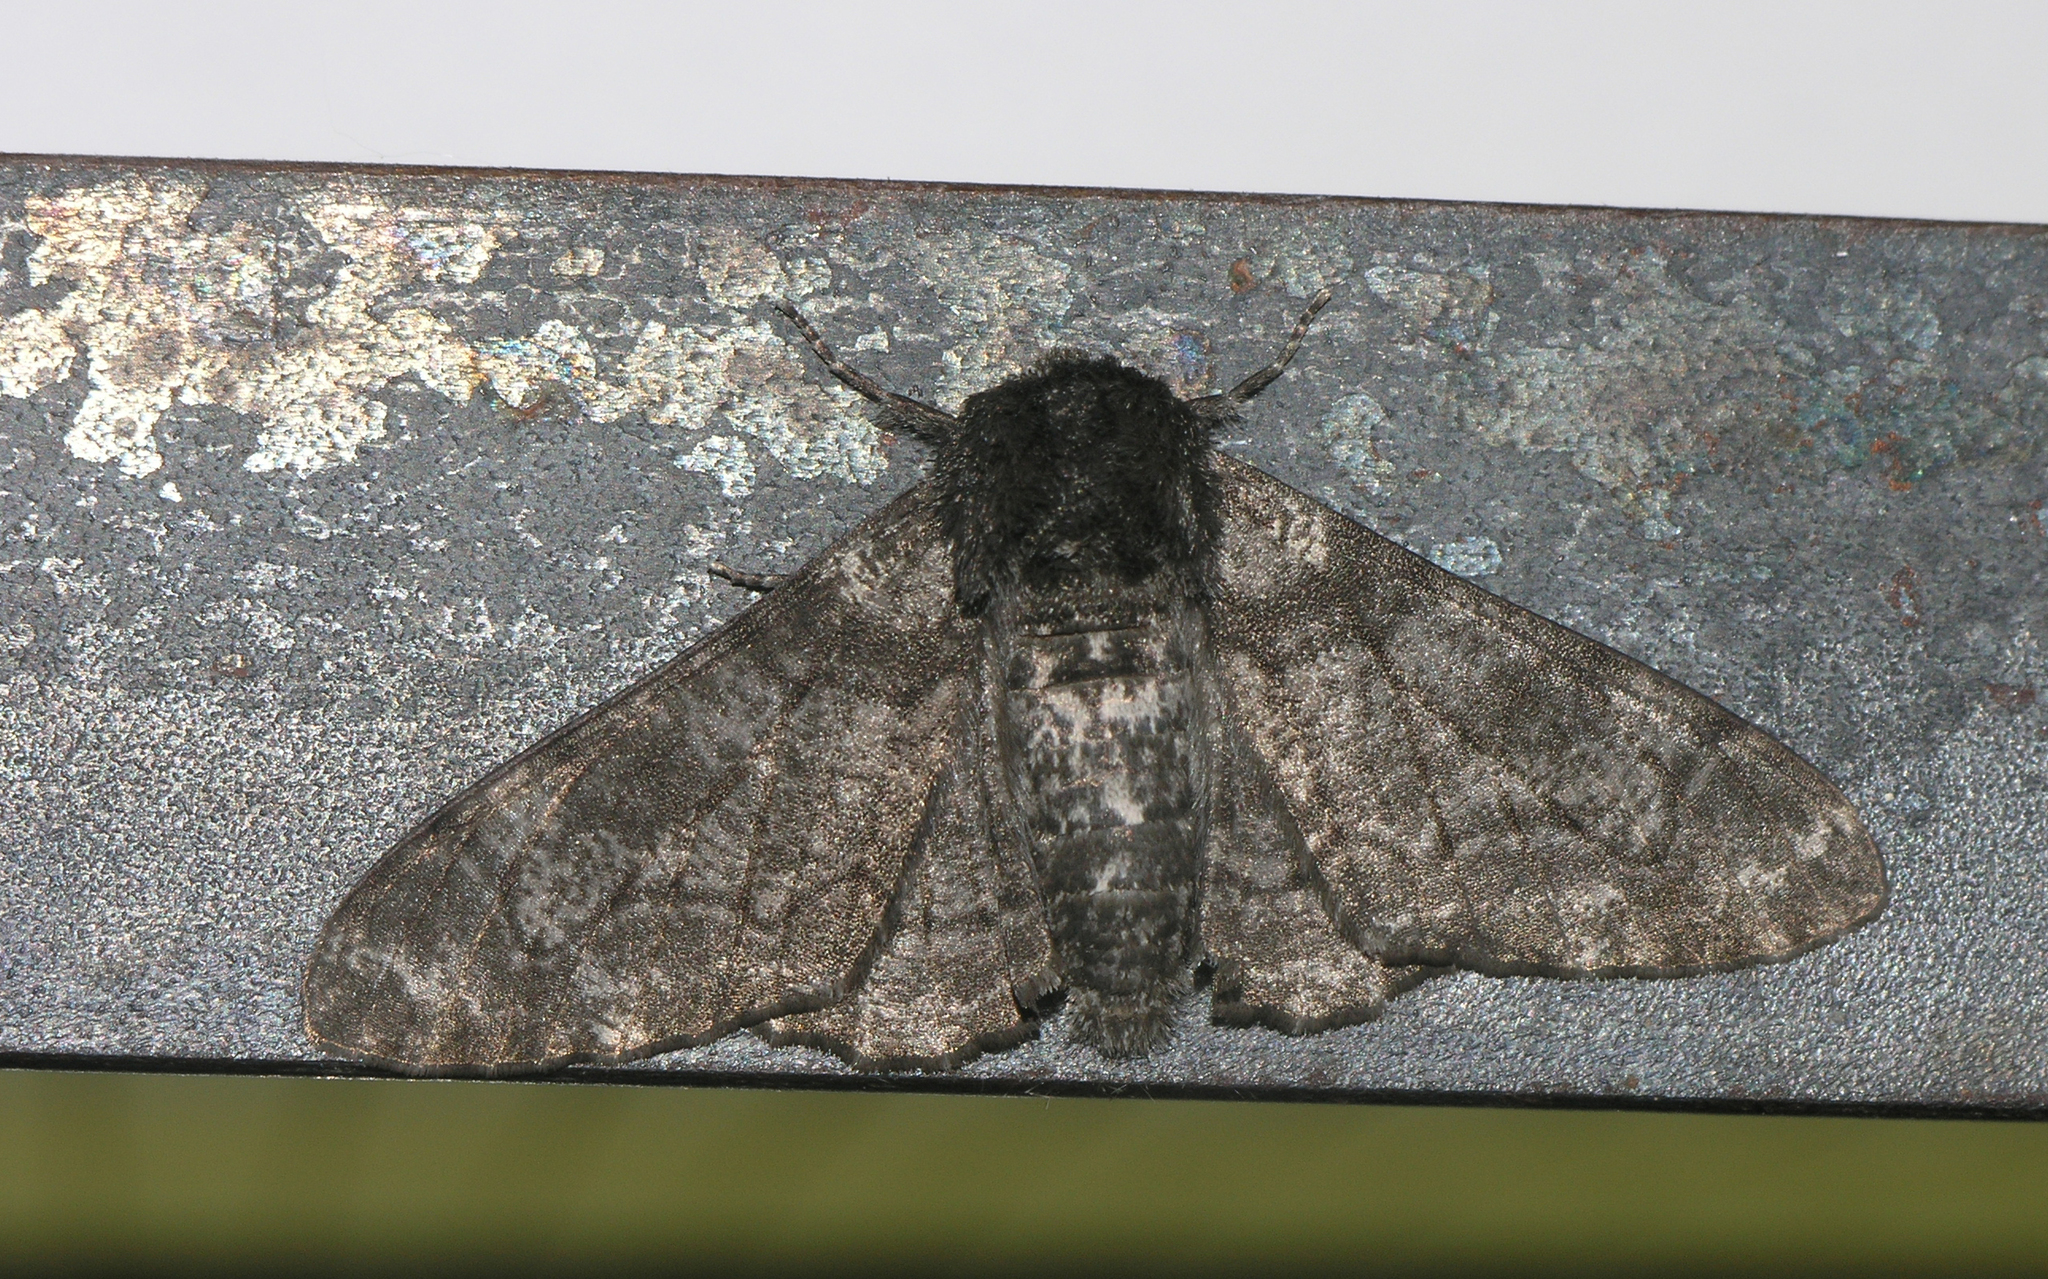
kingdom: Animalia
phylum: Arthropoda
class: Insecta
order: Lepidoptera
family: Geometridae
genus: Biston
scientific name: Biston betularia
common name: Peppered moth
